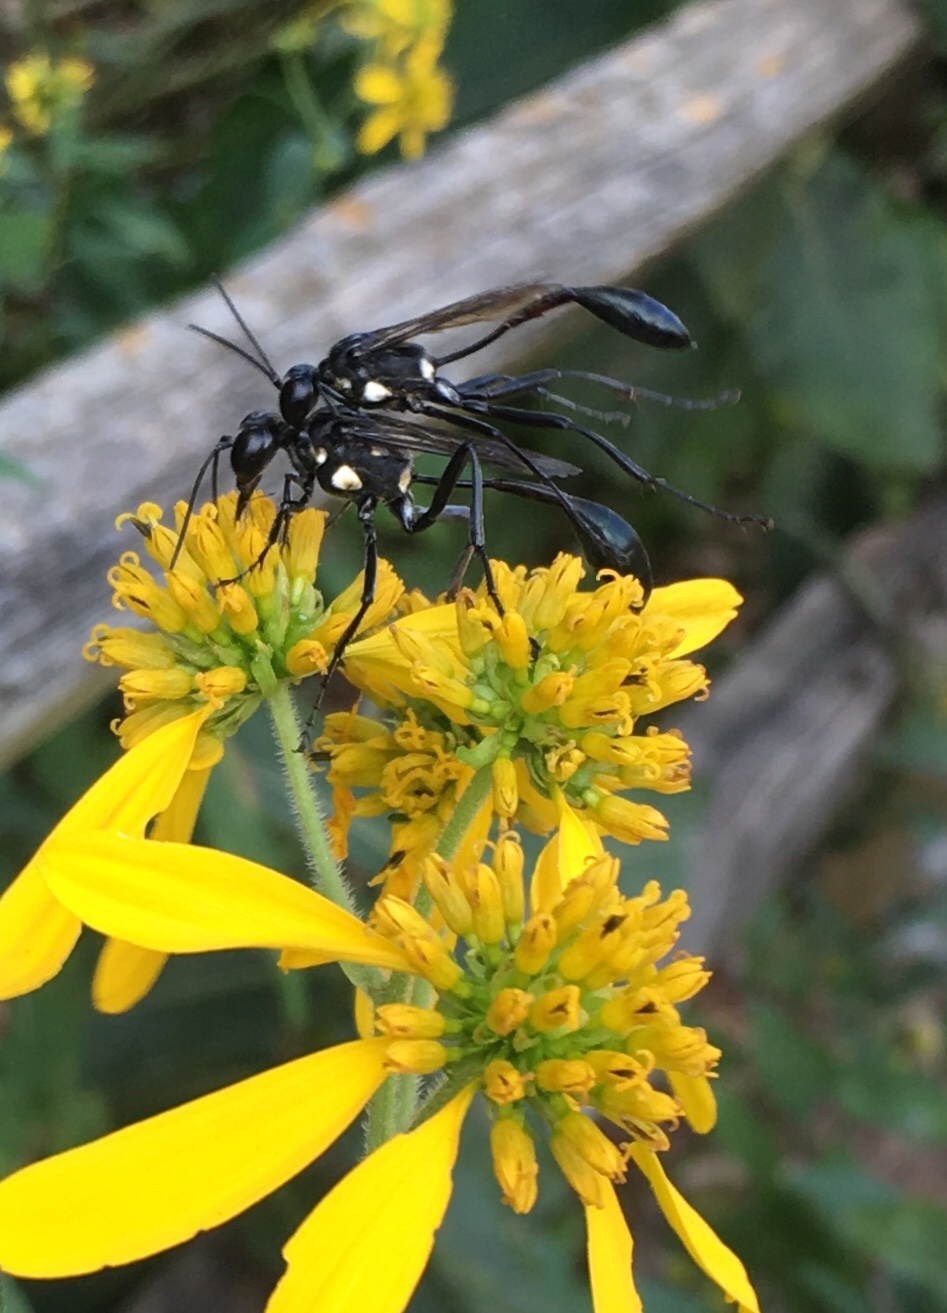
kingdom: Animalia
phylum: Arthropoda
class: Insecta
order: Hymenoptera
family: Sphecidae
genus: Eremnophila
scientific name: Eremnophila aureonotata
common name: Gold-marked thread-waisted wasp
